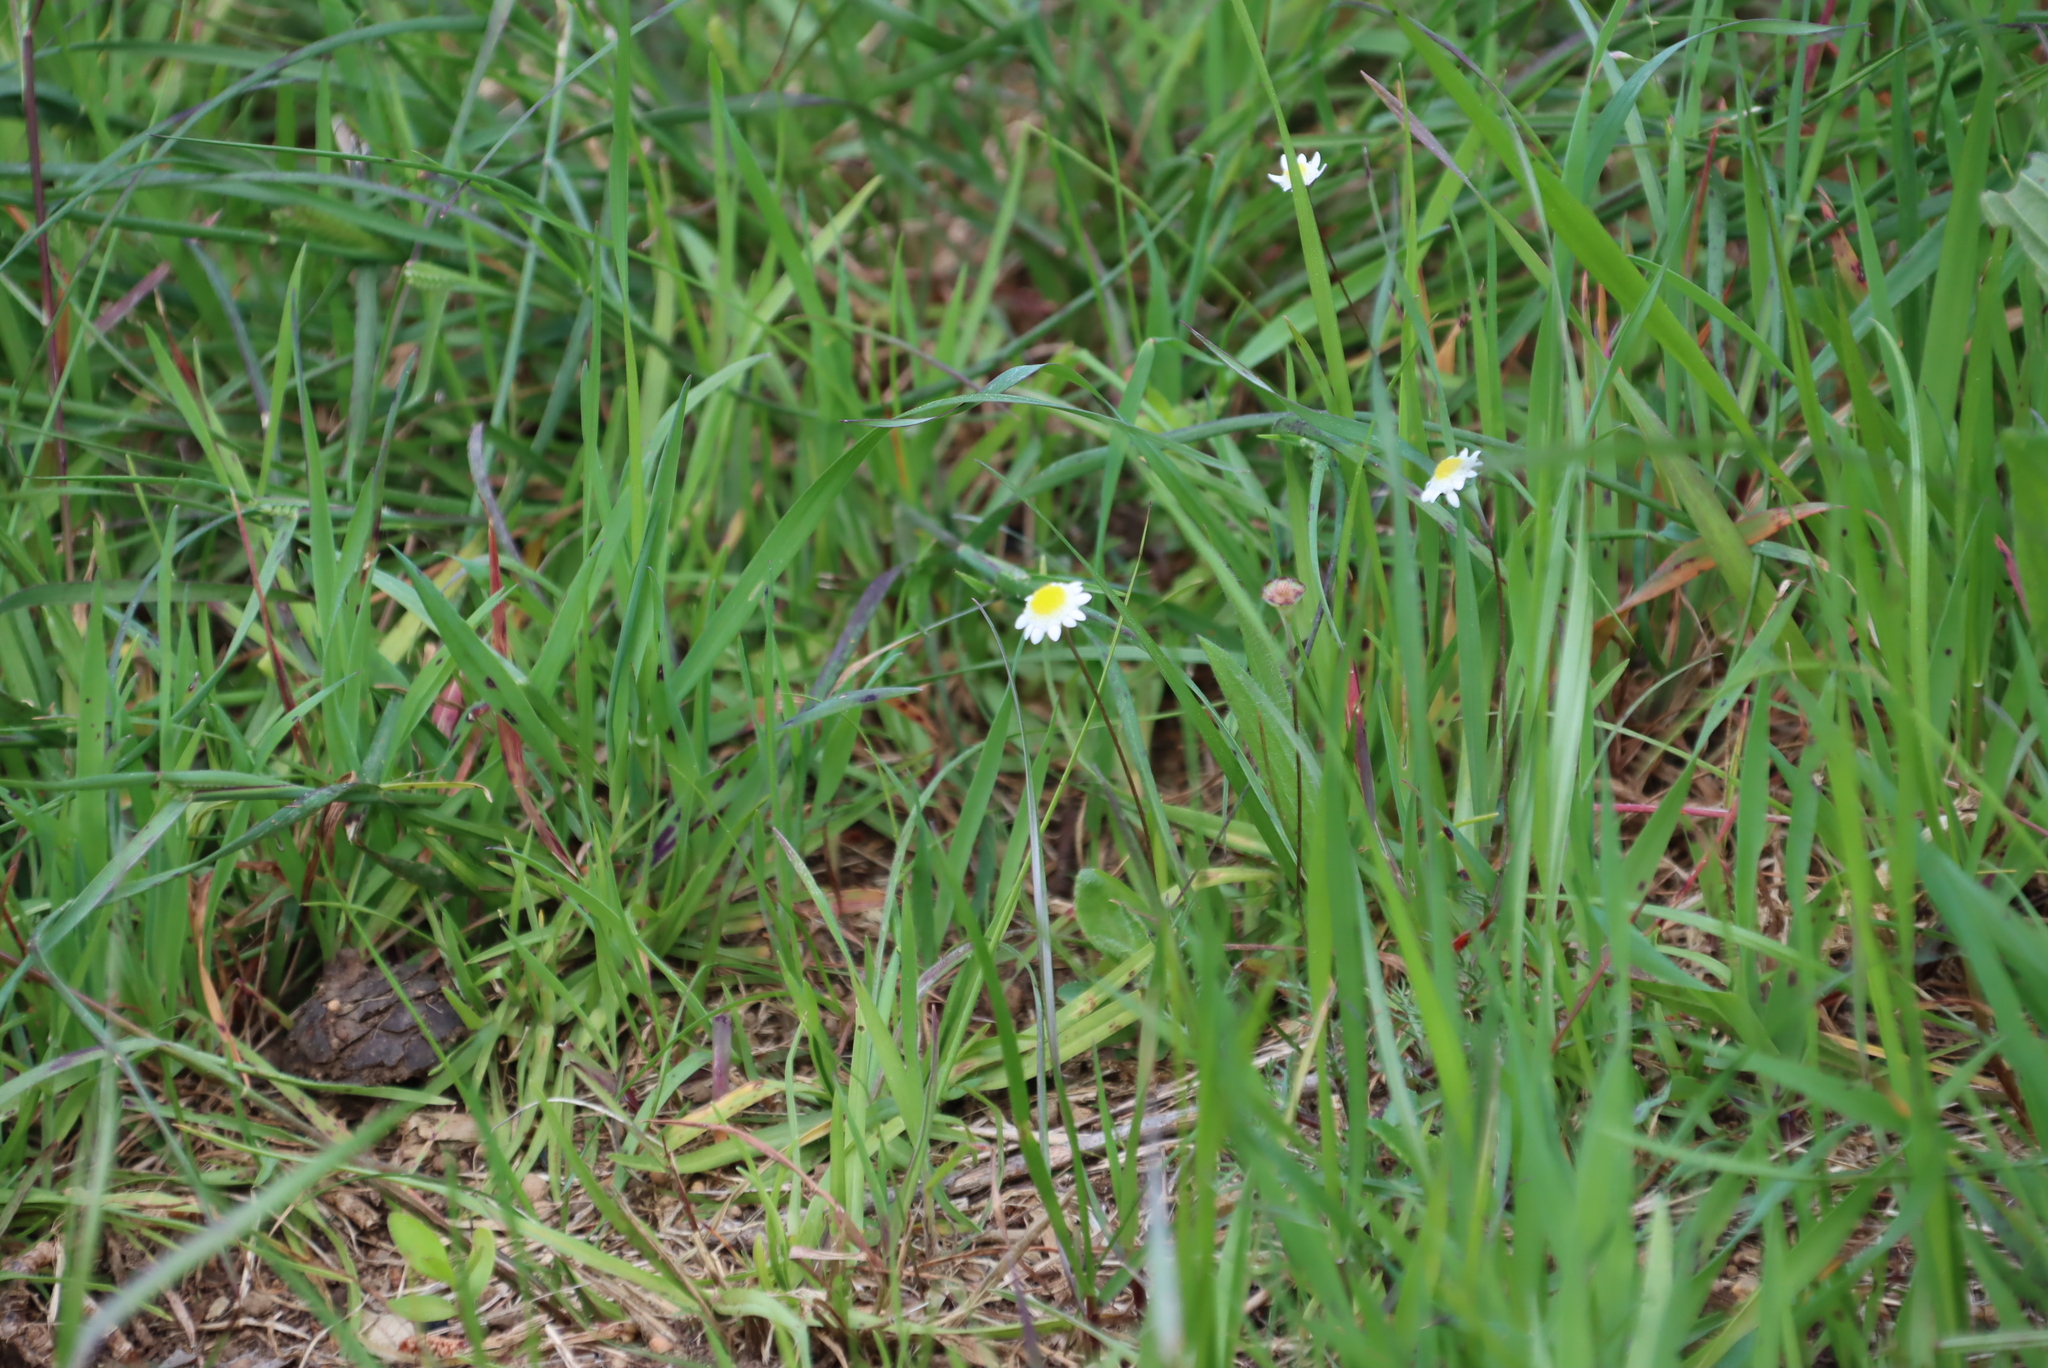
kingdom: Plantae
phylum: Tracheophyta
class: Magnoliopsida
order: Asterales
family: Asteraceae
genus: Cotula
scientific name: Cotula turbinata
